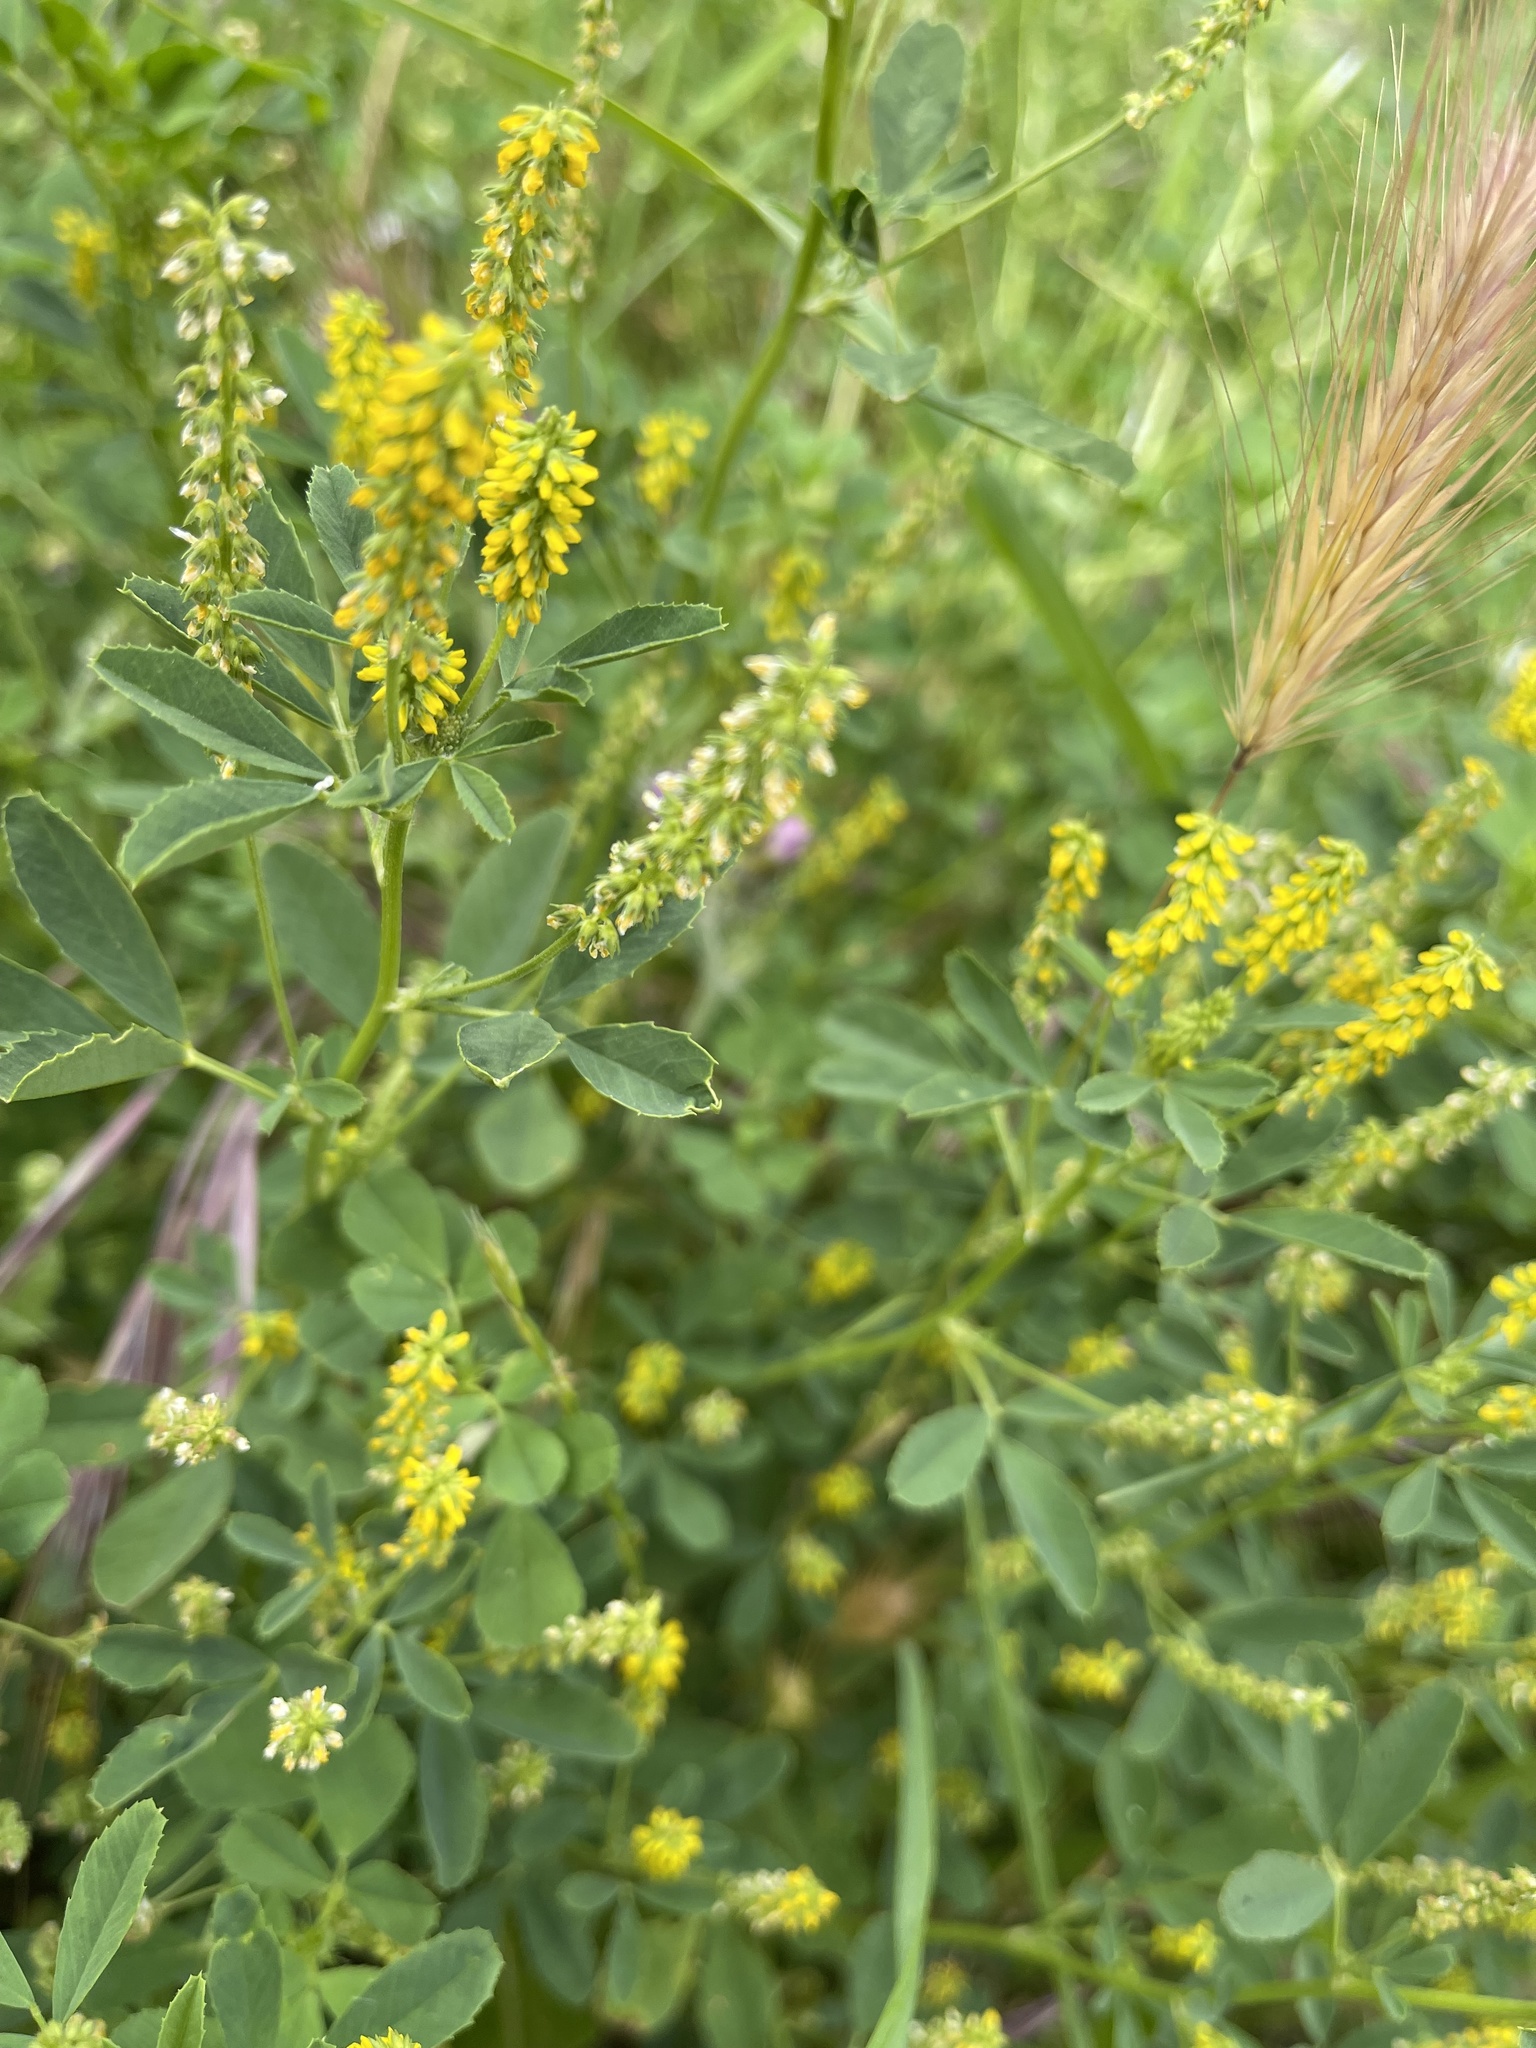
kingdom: Plantae
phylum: Tracheophyta
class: Magnoliopsida
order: Fabales
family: Fabaceae
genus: Melilotus
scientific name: Melilotus indicus
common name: Small melilot
